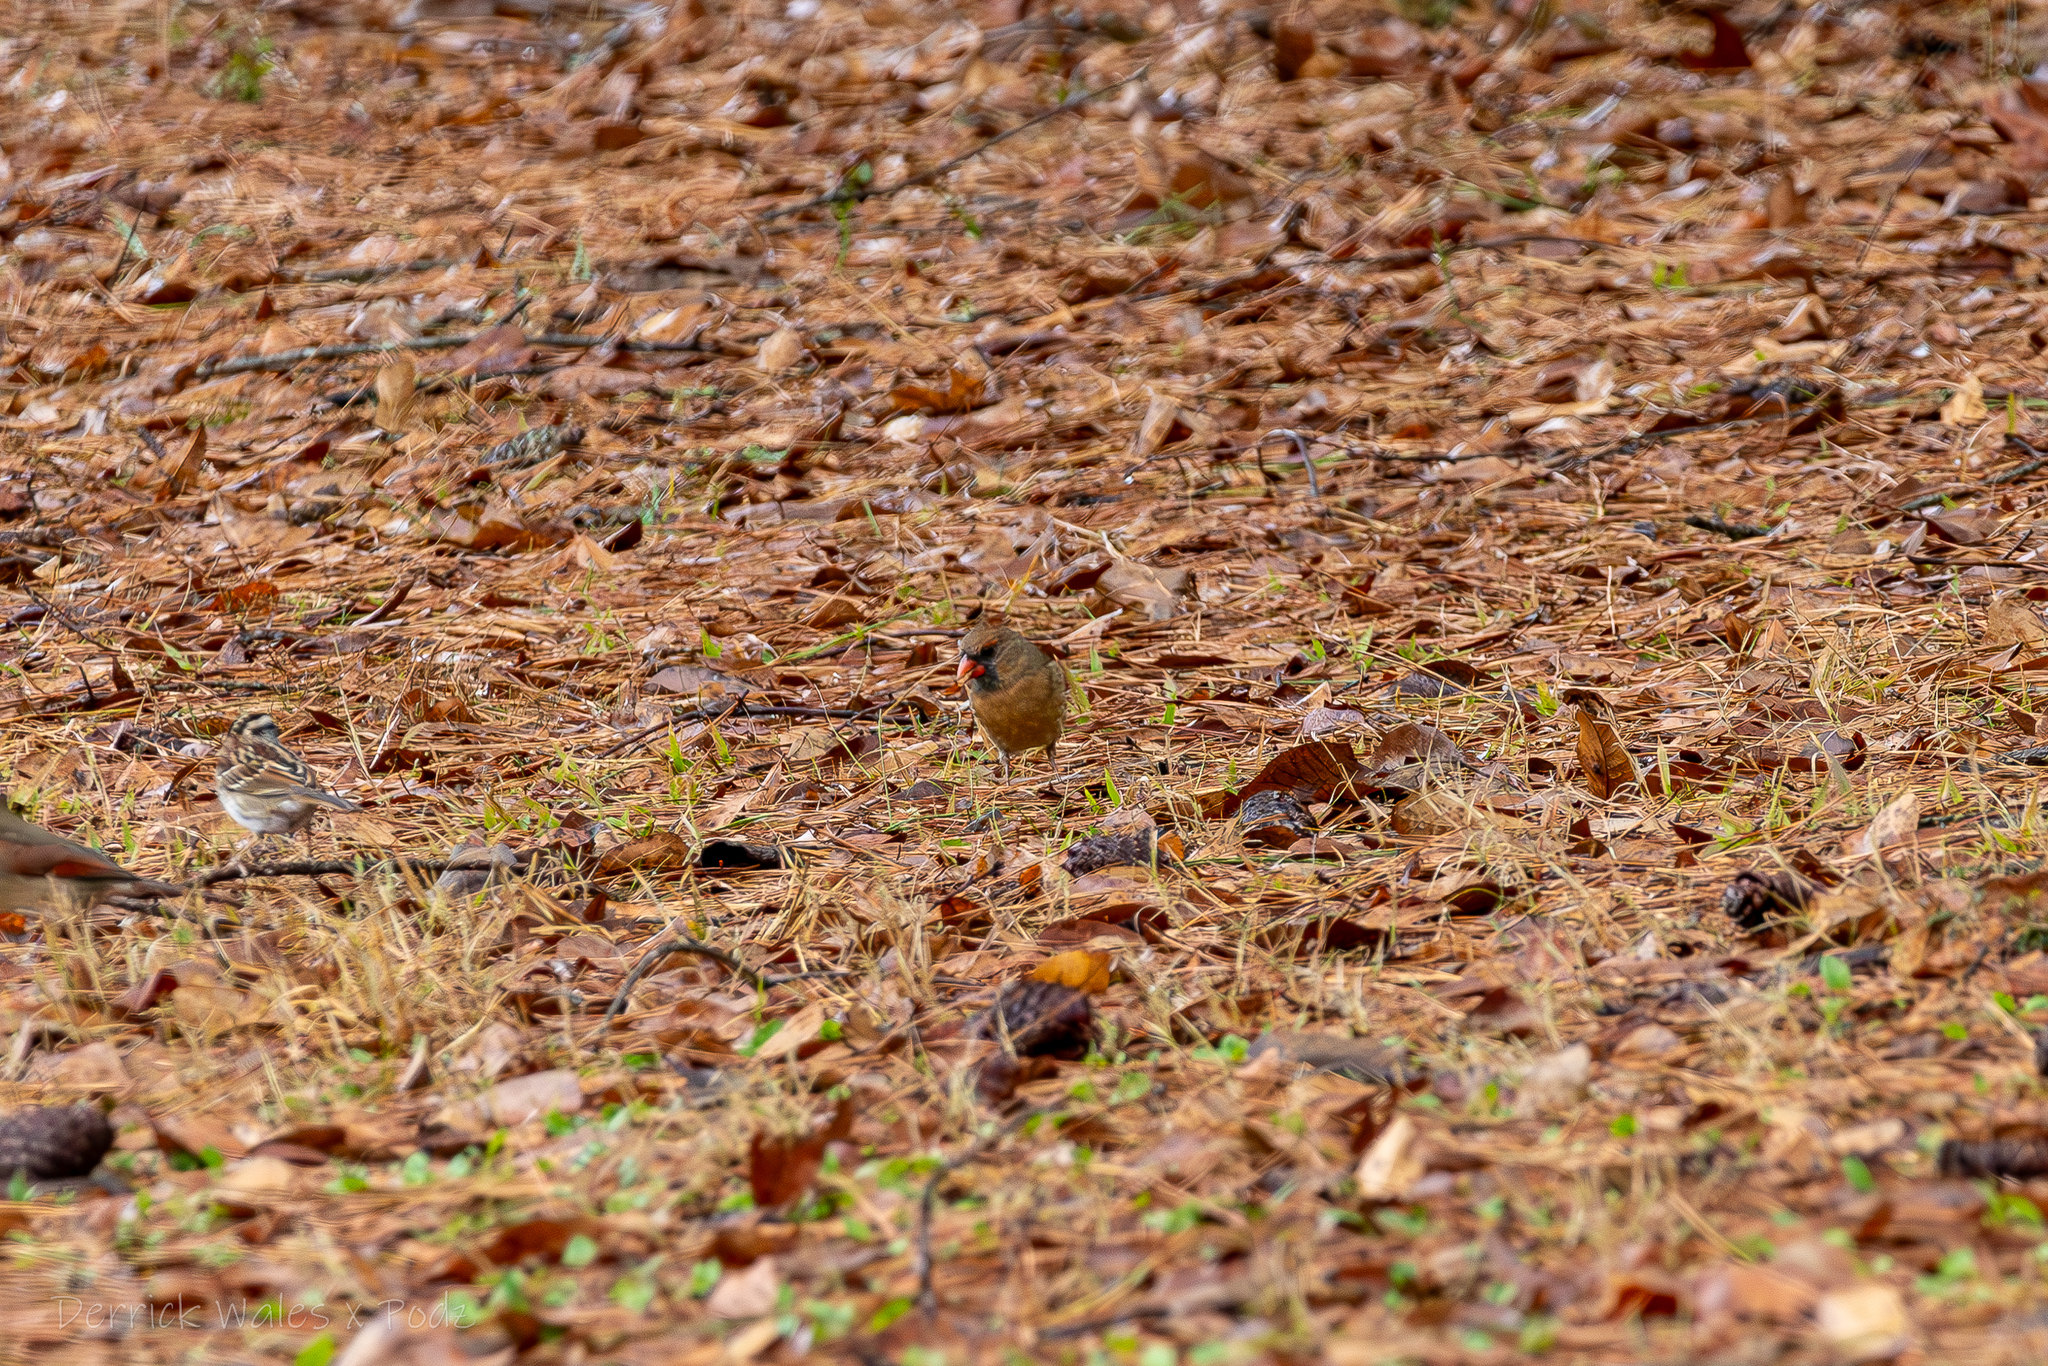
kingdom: Animalia
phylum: Chordata
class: Aves
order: Passeriformes
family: Cardinalidae
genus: Cardinalis
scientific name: Cardinalis cardinalis
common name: Northern cardinal
